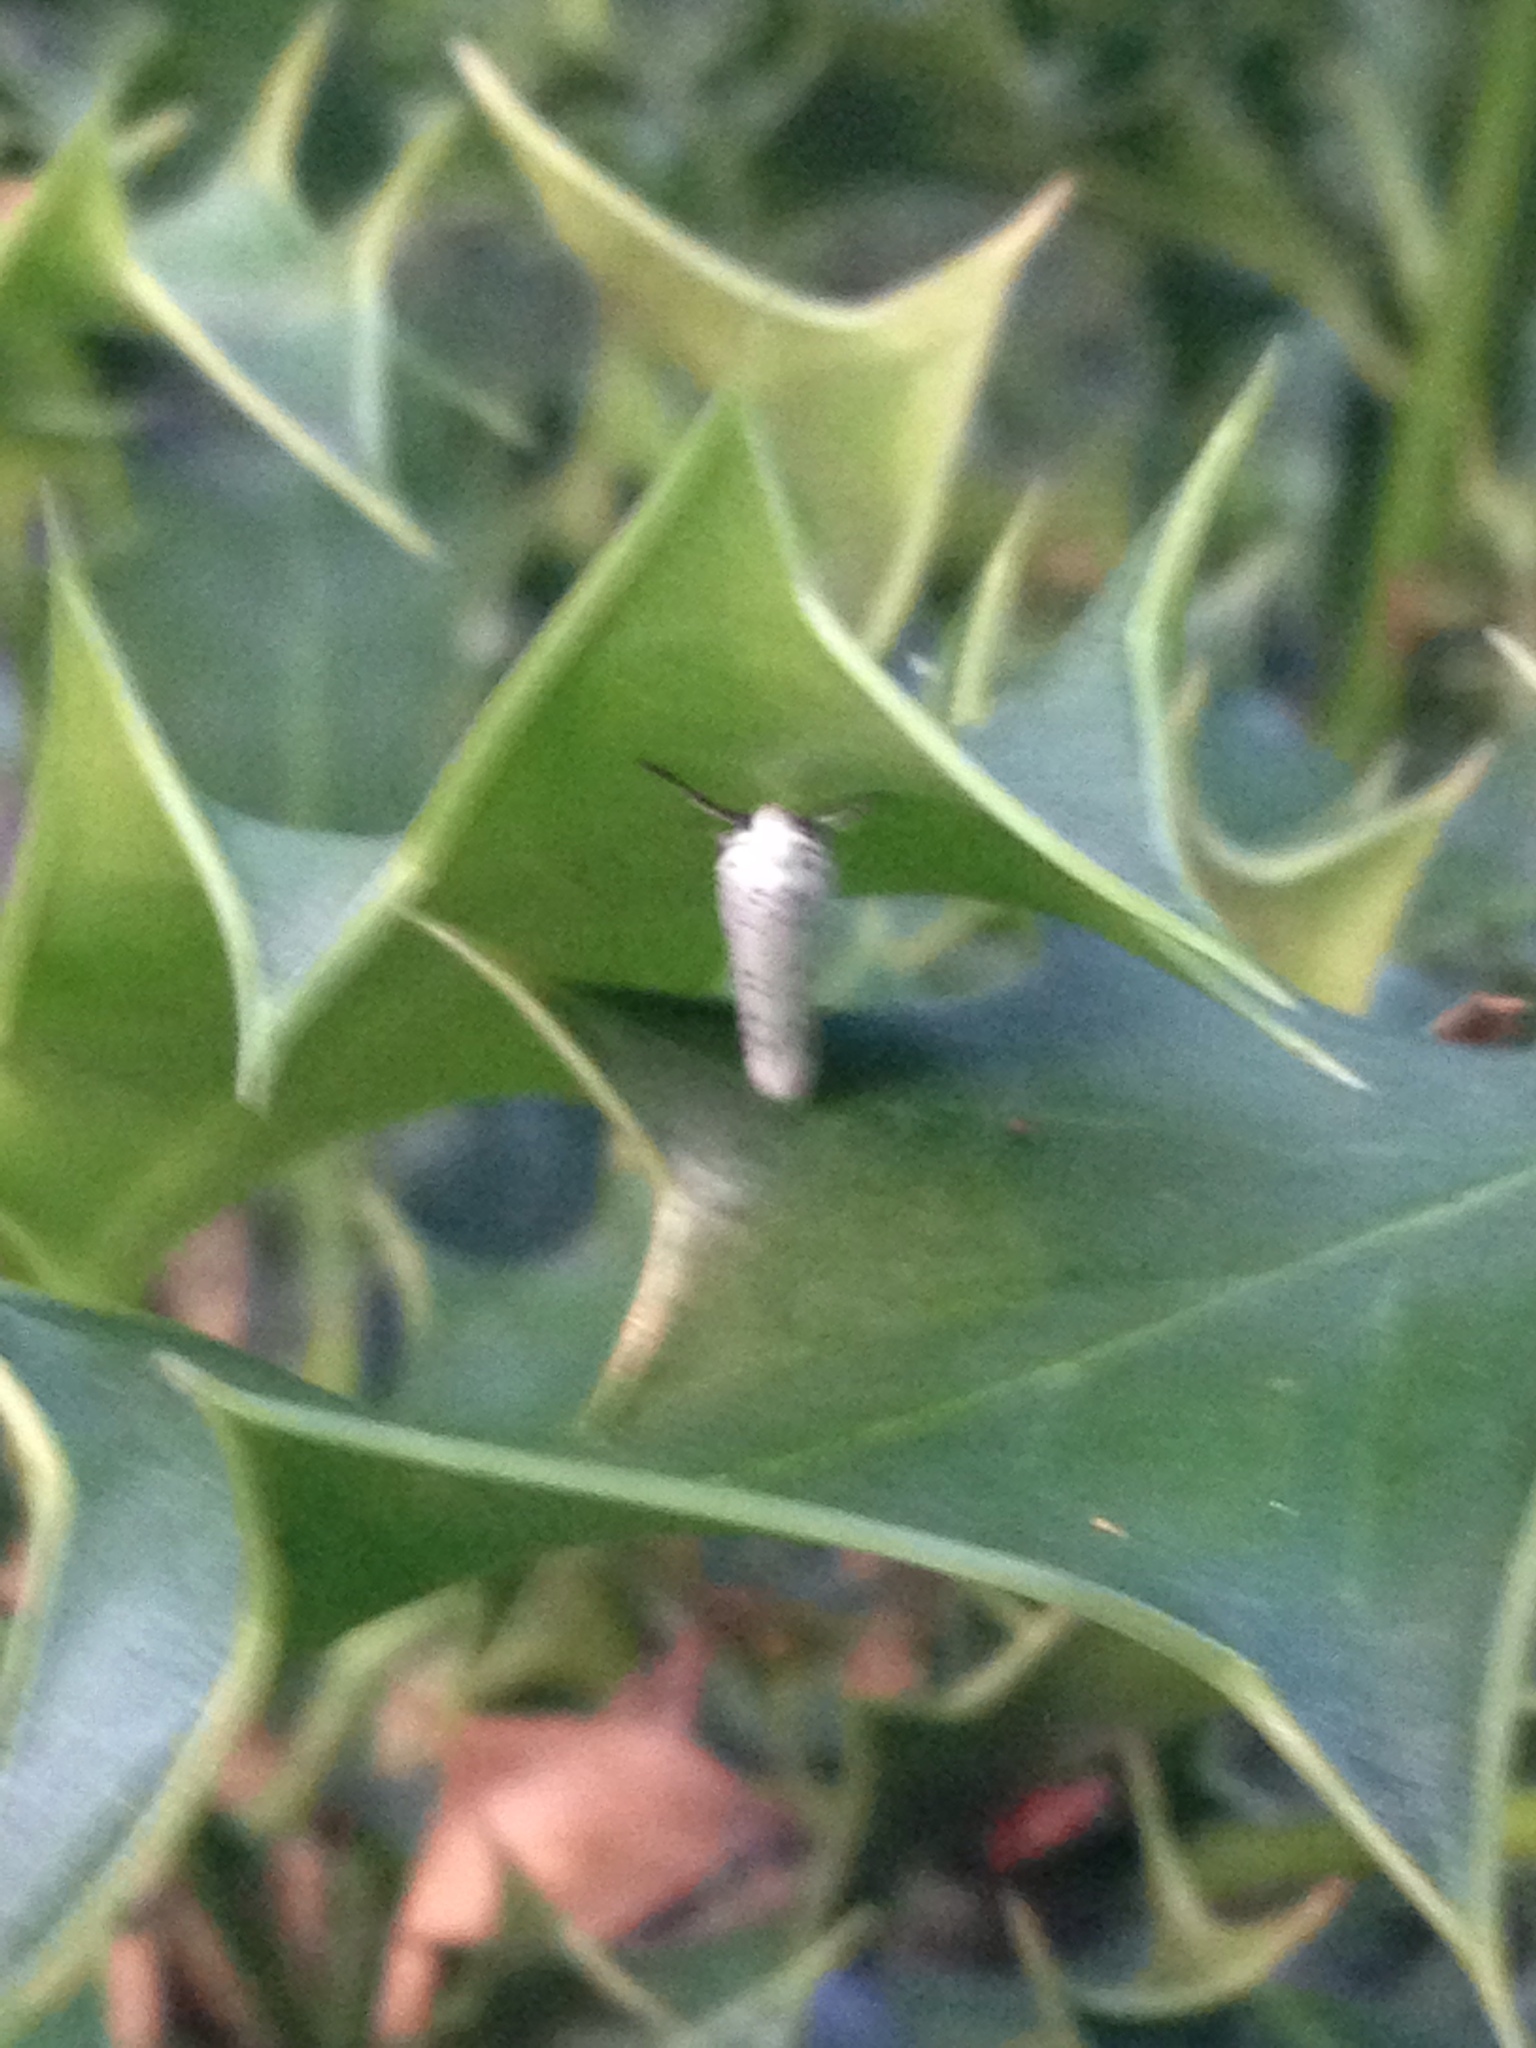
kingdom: Animalia
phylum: Arthropoda
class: Insecta
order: Lepidoptera
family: Yponomeutidae
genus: Yponomeuta
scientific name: Yponomeuta
